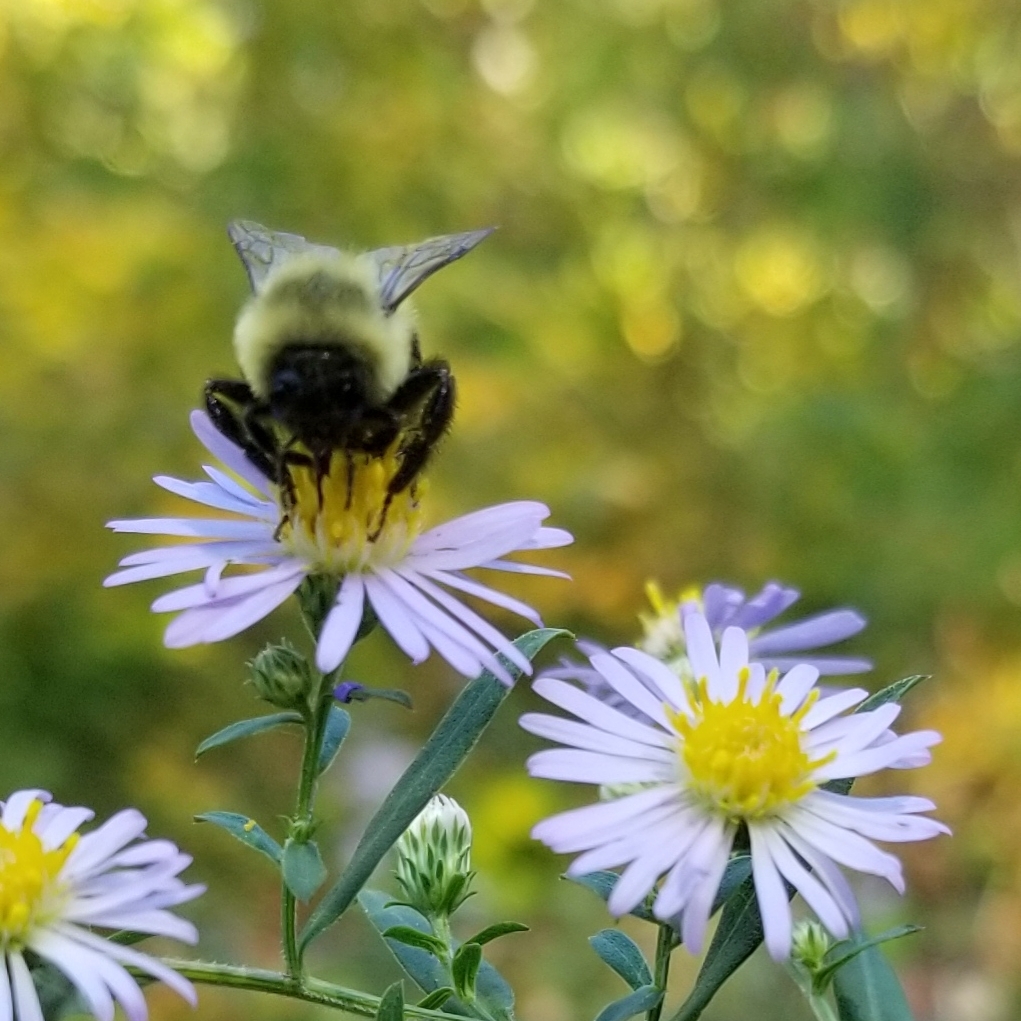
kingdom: Animalia
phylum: Arthropoda
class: Insecta
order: Hymenoptera
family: Apidae
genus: Bombus
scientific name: Bombus impatiens
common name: Common eastern bumble bee
